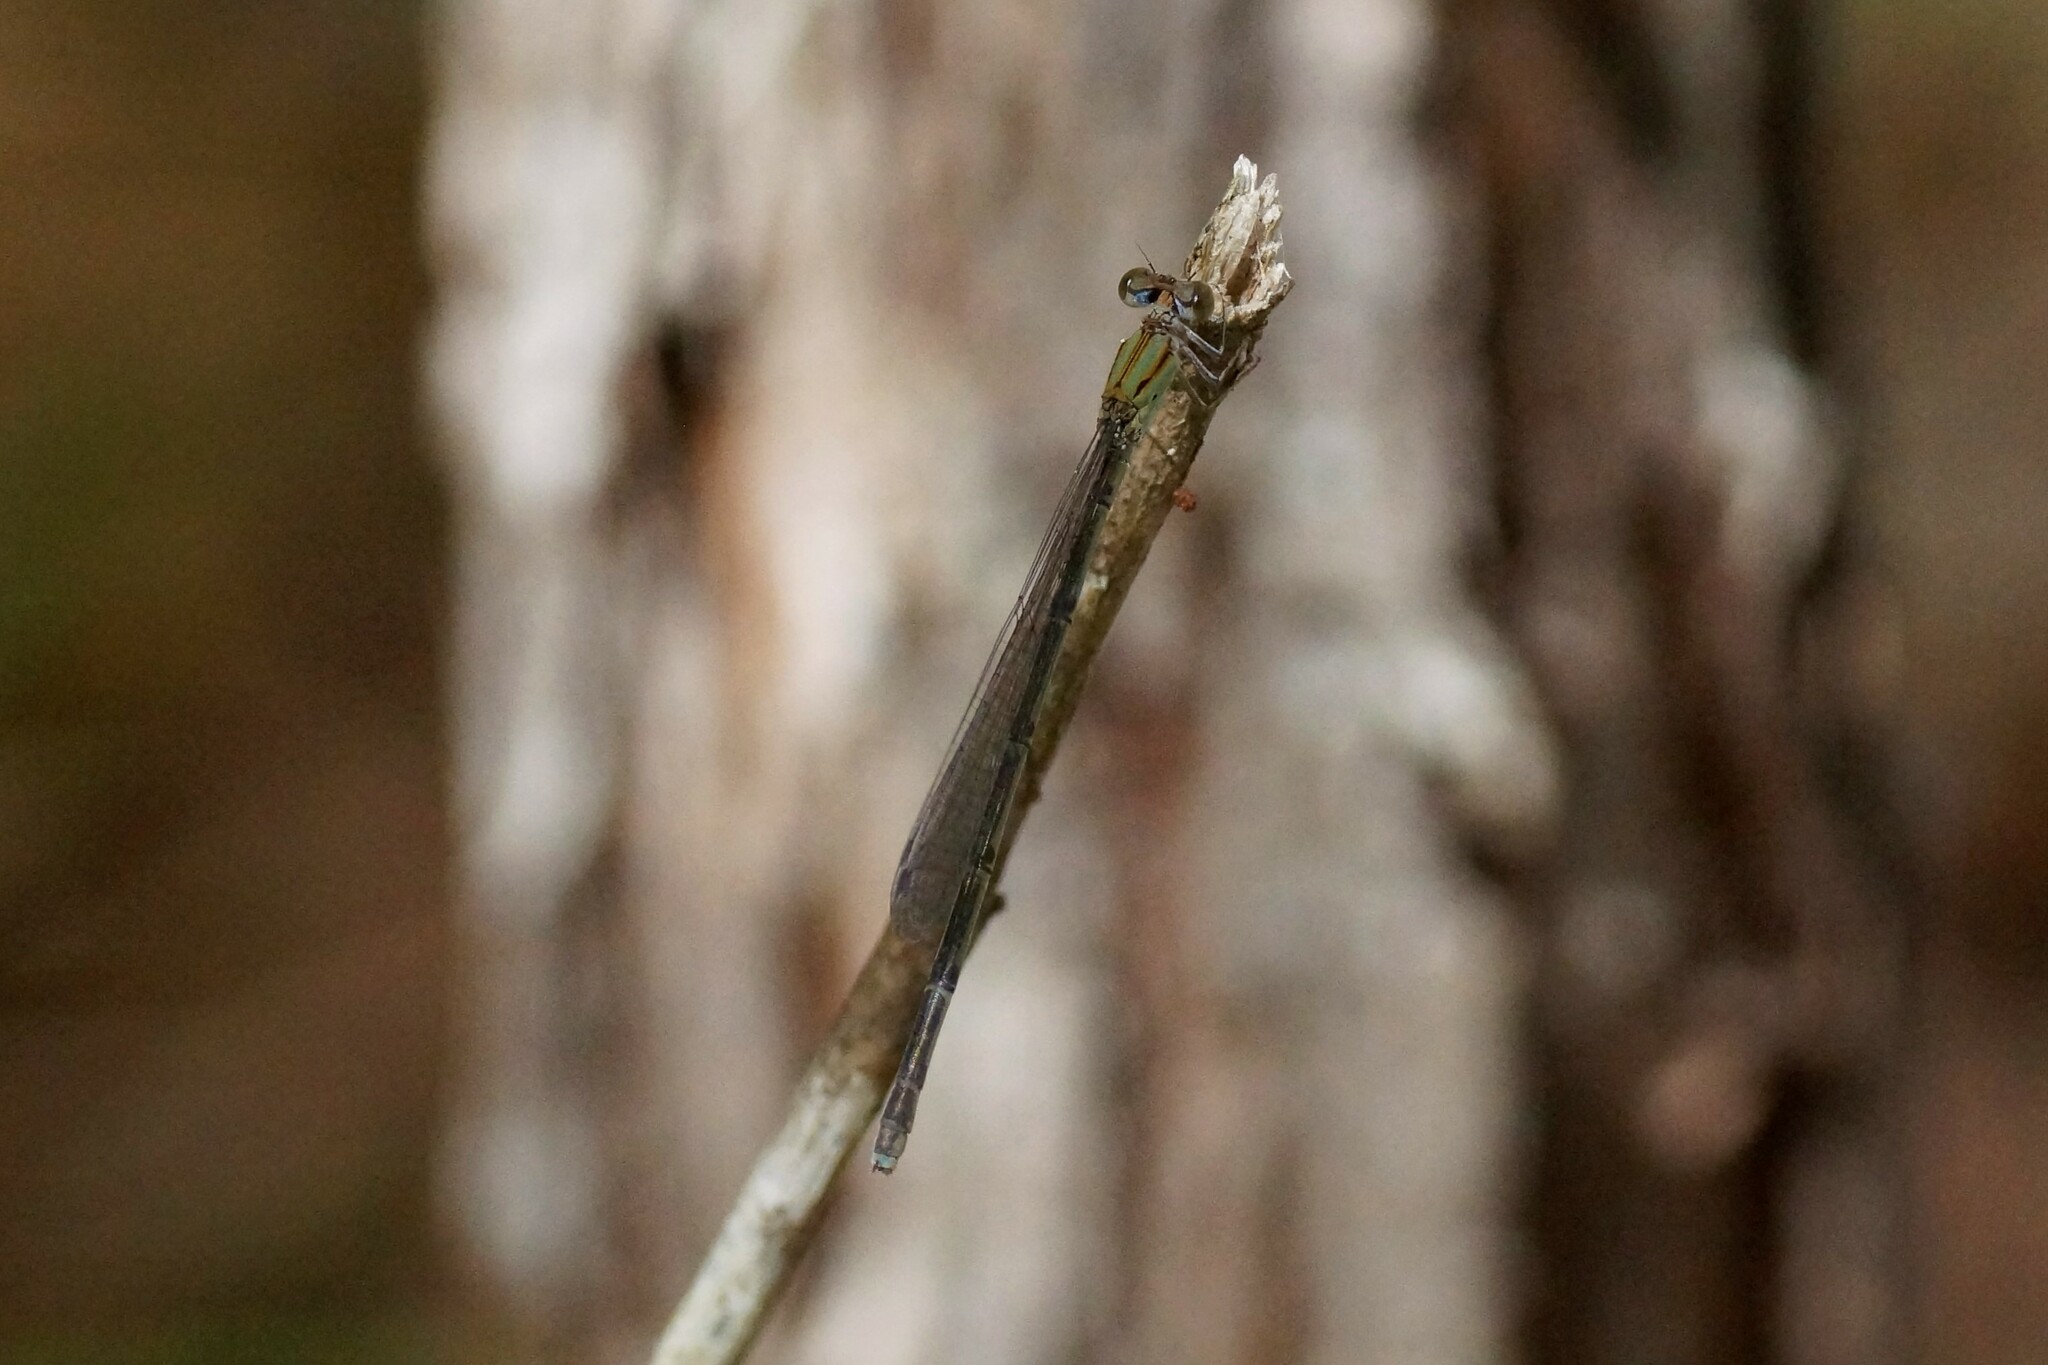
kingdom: Animalia
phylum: Arthropoda
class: Insecta
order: Odonata
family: Coenagrionidae
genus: Pseudagrion
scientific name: Pseudagrion microcephalum
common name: Blue riverdamsel
